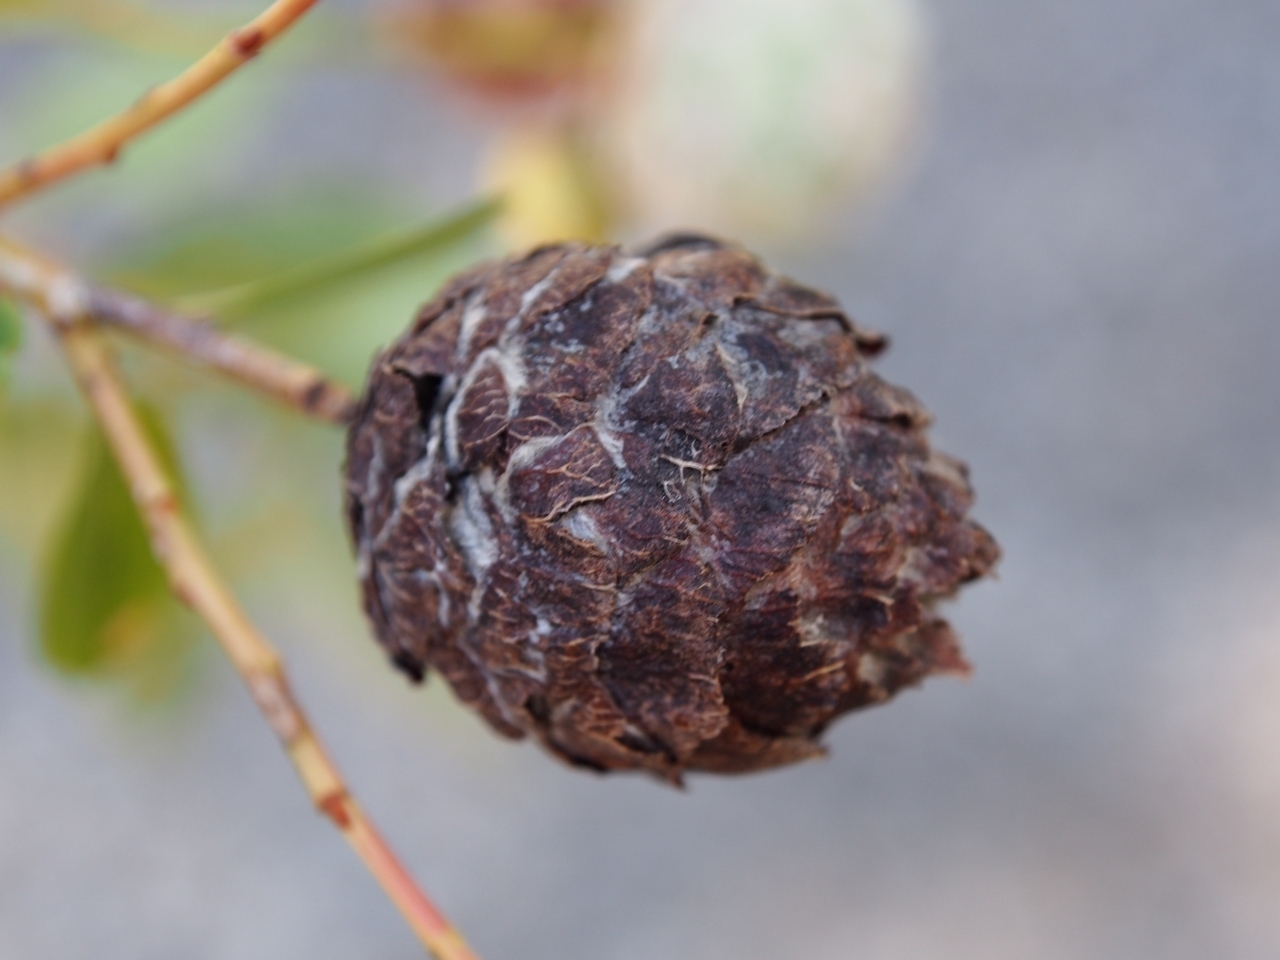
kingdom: Animalia
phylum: Arthropoda
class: Insecta
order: Diptera
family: Cecidomyiidae
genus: Rabdophaga
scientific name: Rabdophaga strobiloides
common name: Willow pinecone gall midge
